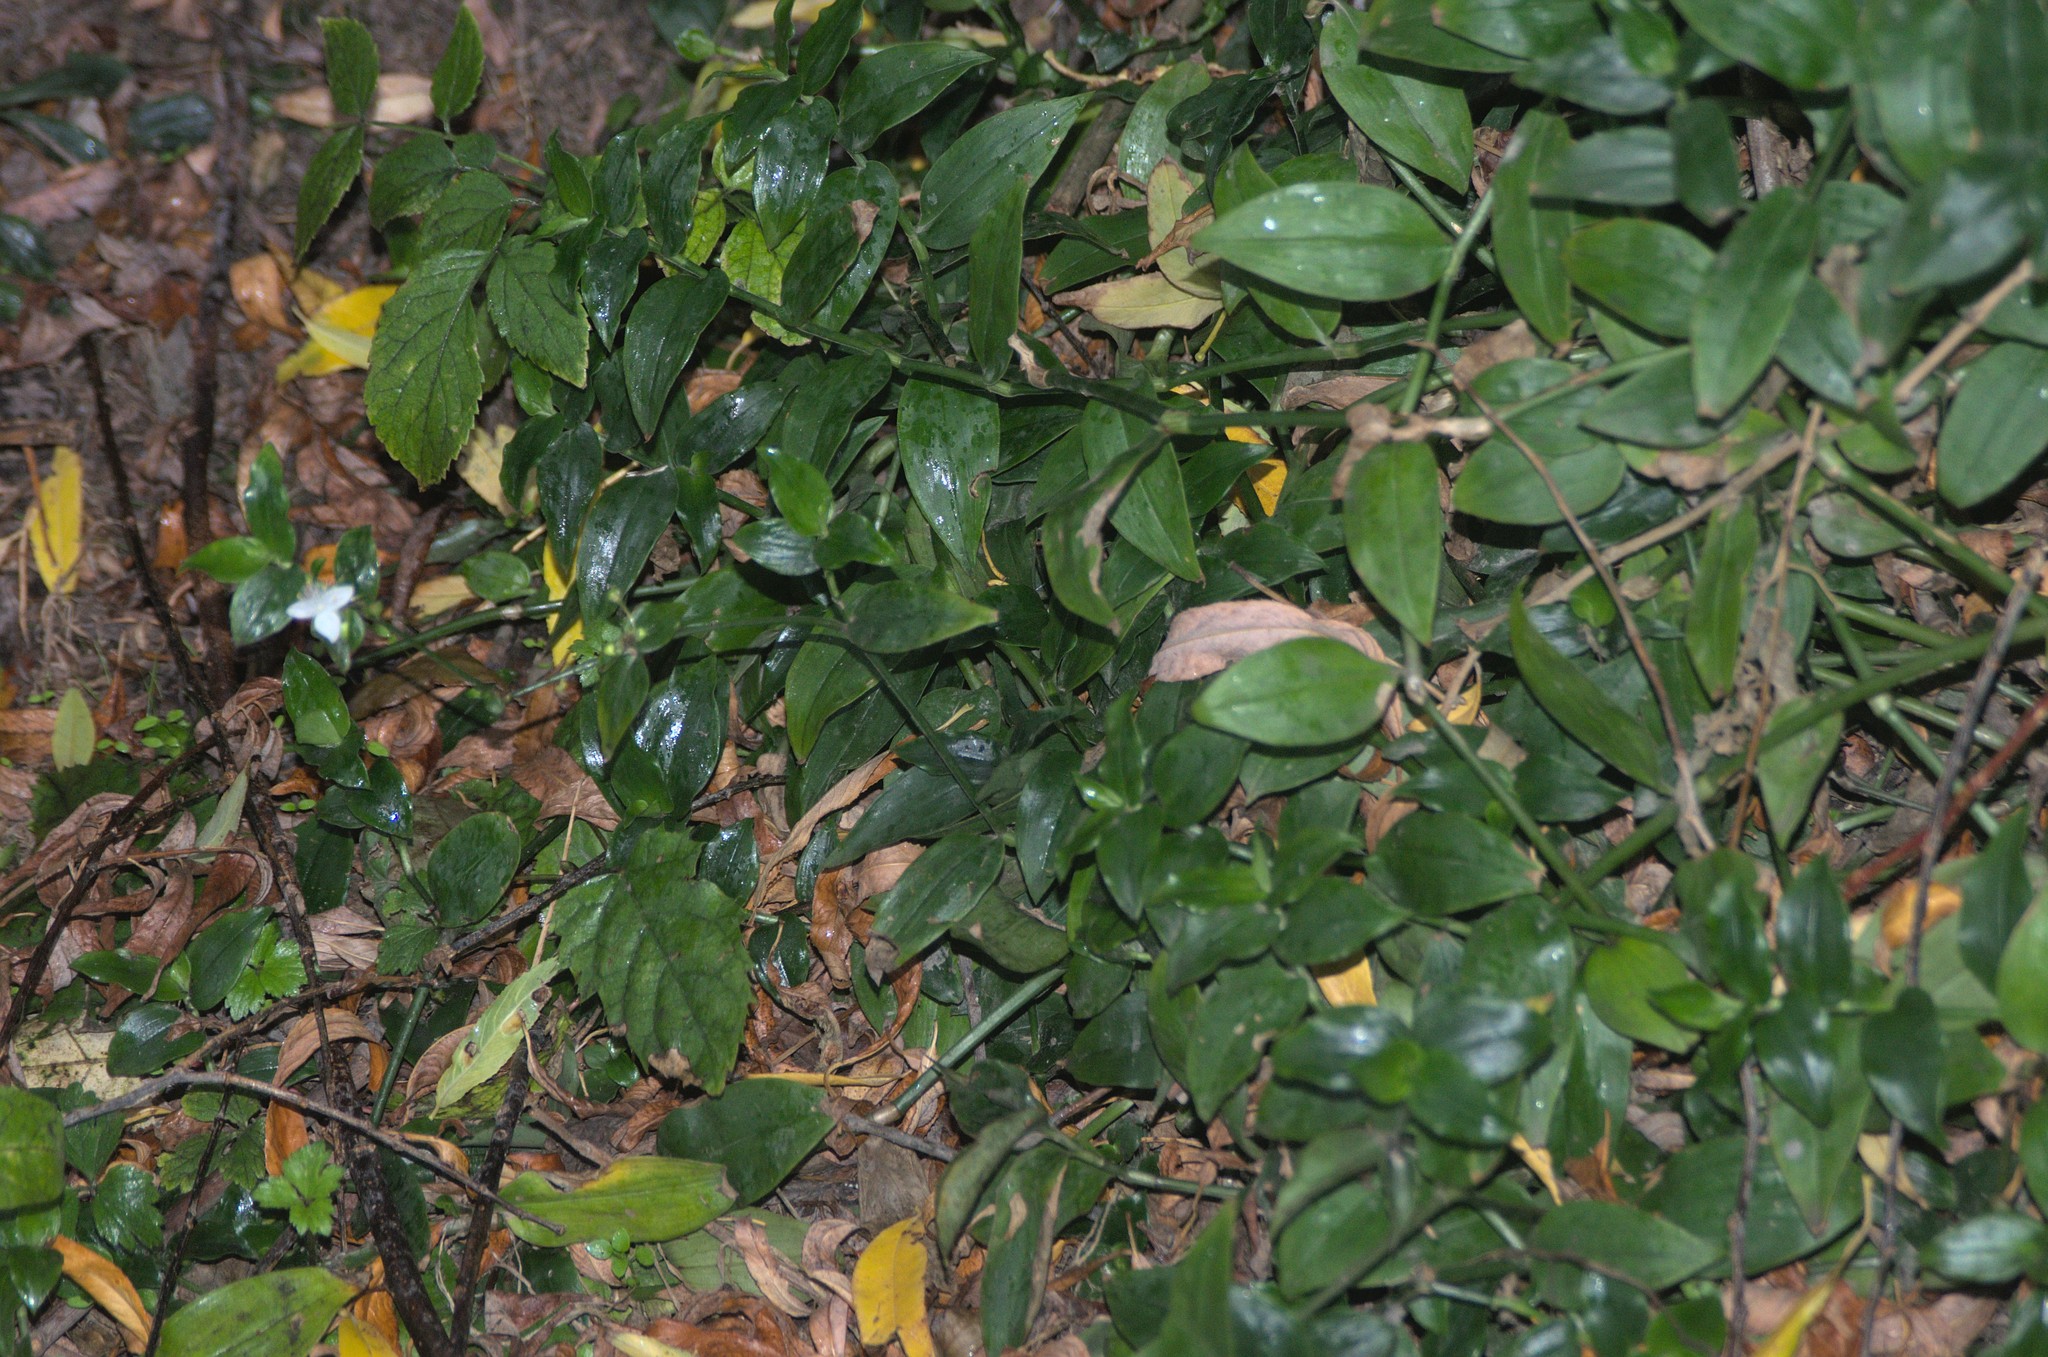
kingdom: Plantae
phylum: Tracheophyta
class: Liliopsida
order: Commelinales
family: Commelinaceae
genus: Tradescantia
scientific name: Tradescantia fluminensis
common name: Wandering-jew
